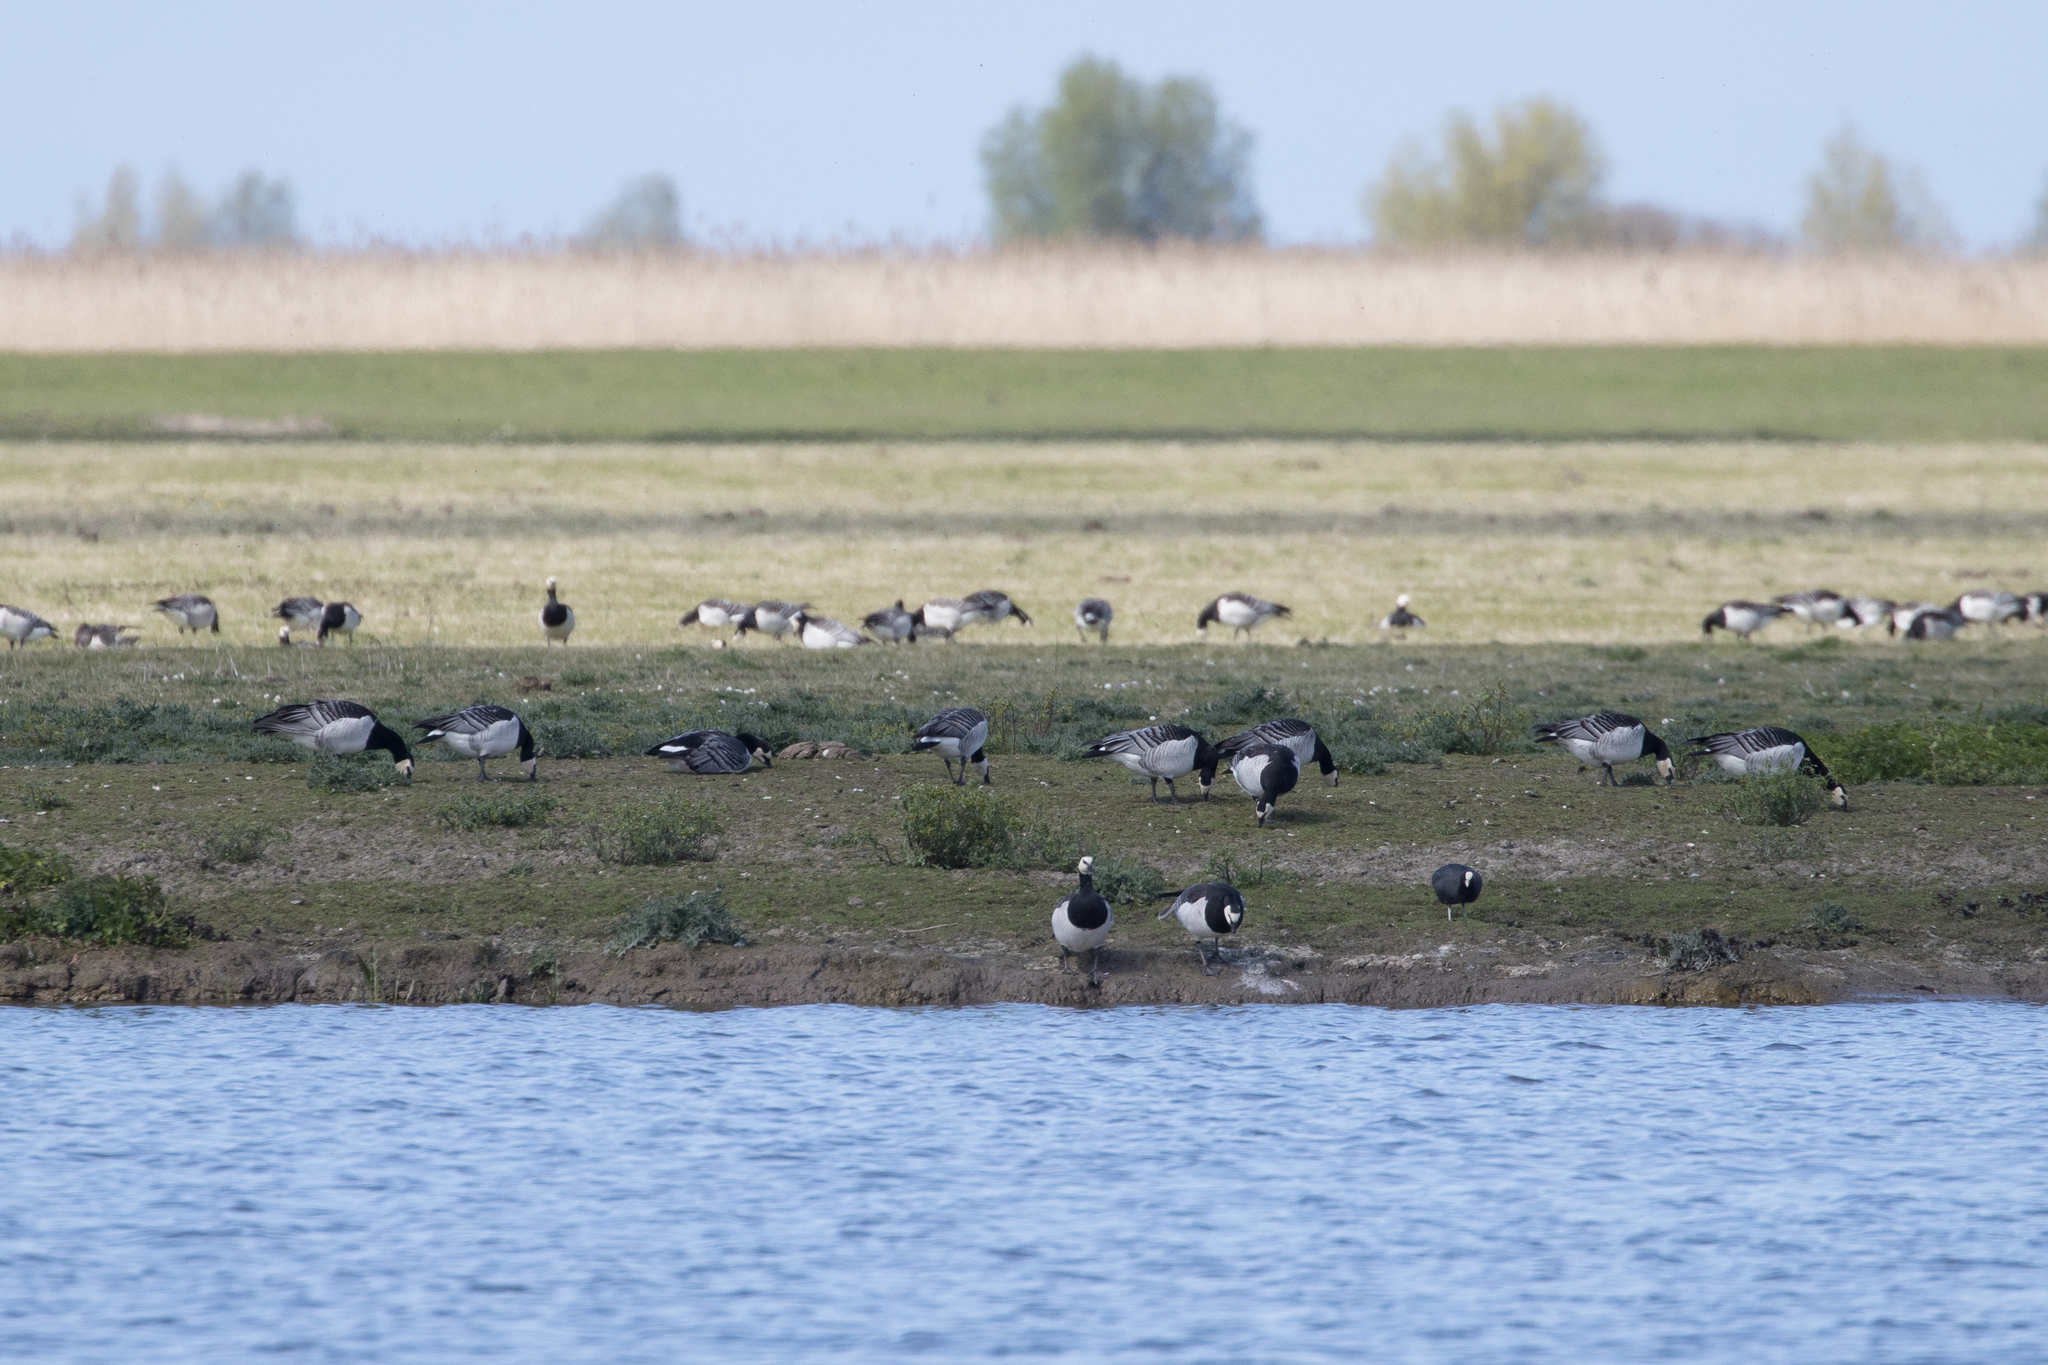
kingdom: Animalia
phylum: Chordata
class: Aves
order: Anseriformes
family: Anatidae
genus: Branta
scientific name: Branta leucopsis
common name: Barnacle goose
